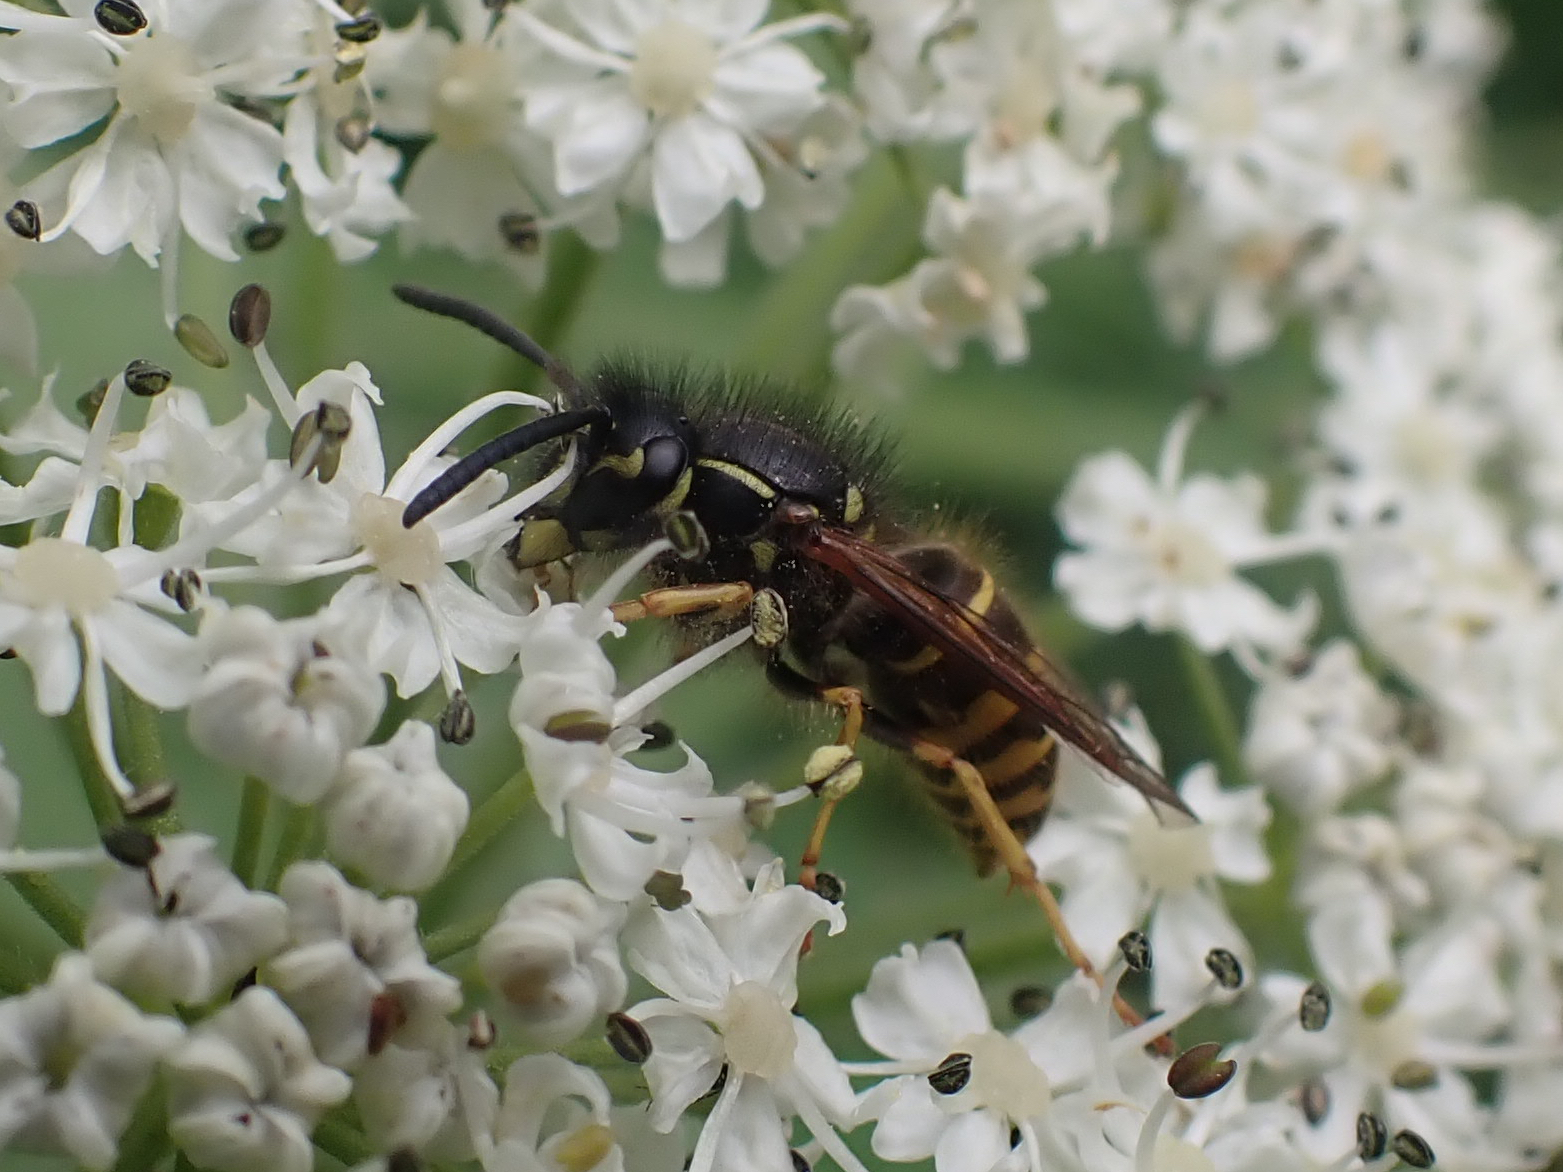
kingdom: Animalia
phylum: Arthropoda
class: Insecta
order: Hymenoptera
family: Vespidae
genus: Vespula
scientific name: Vespula alascensis
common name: Alaska yellowjacket
